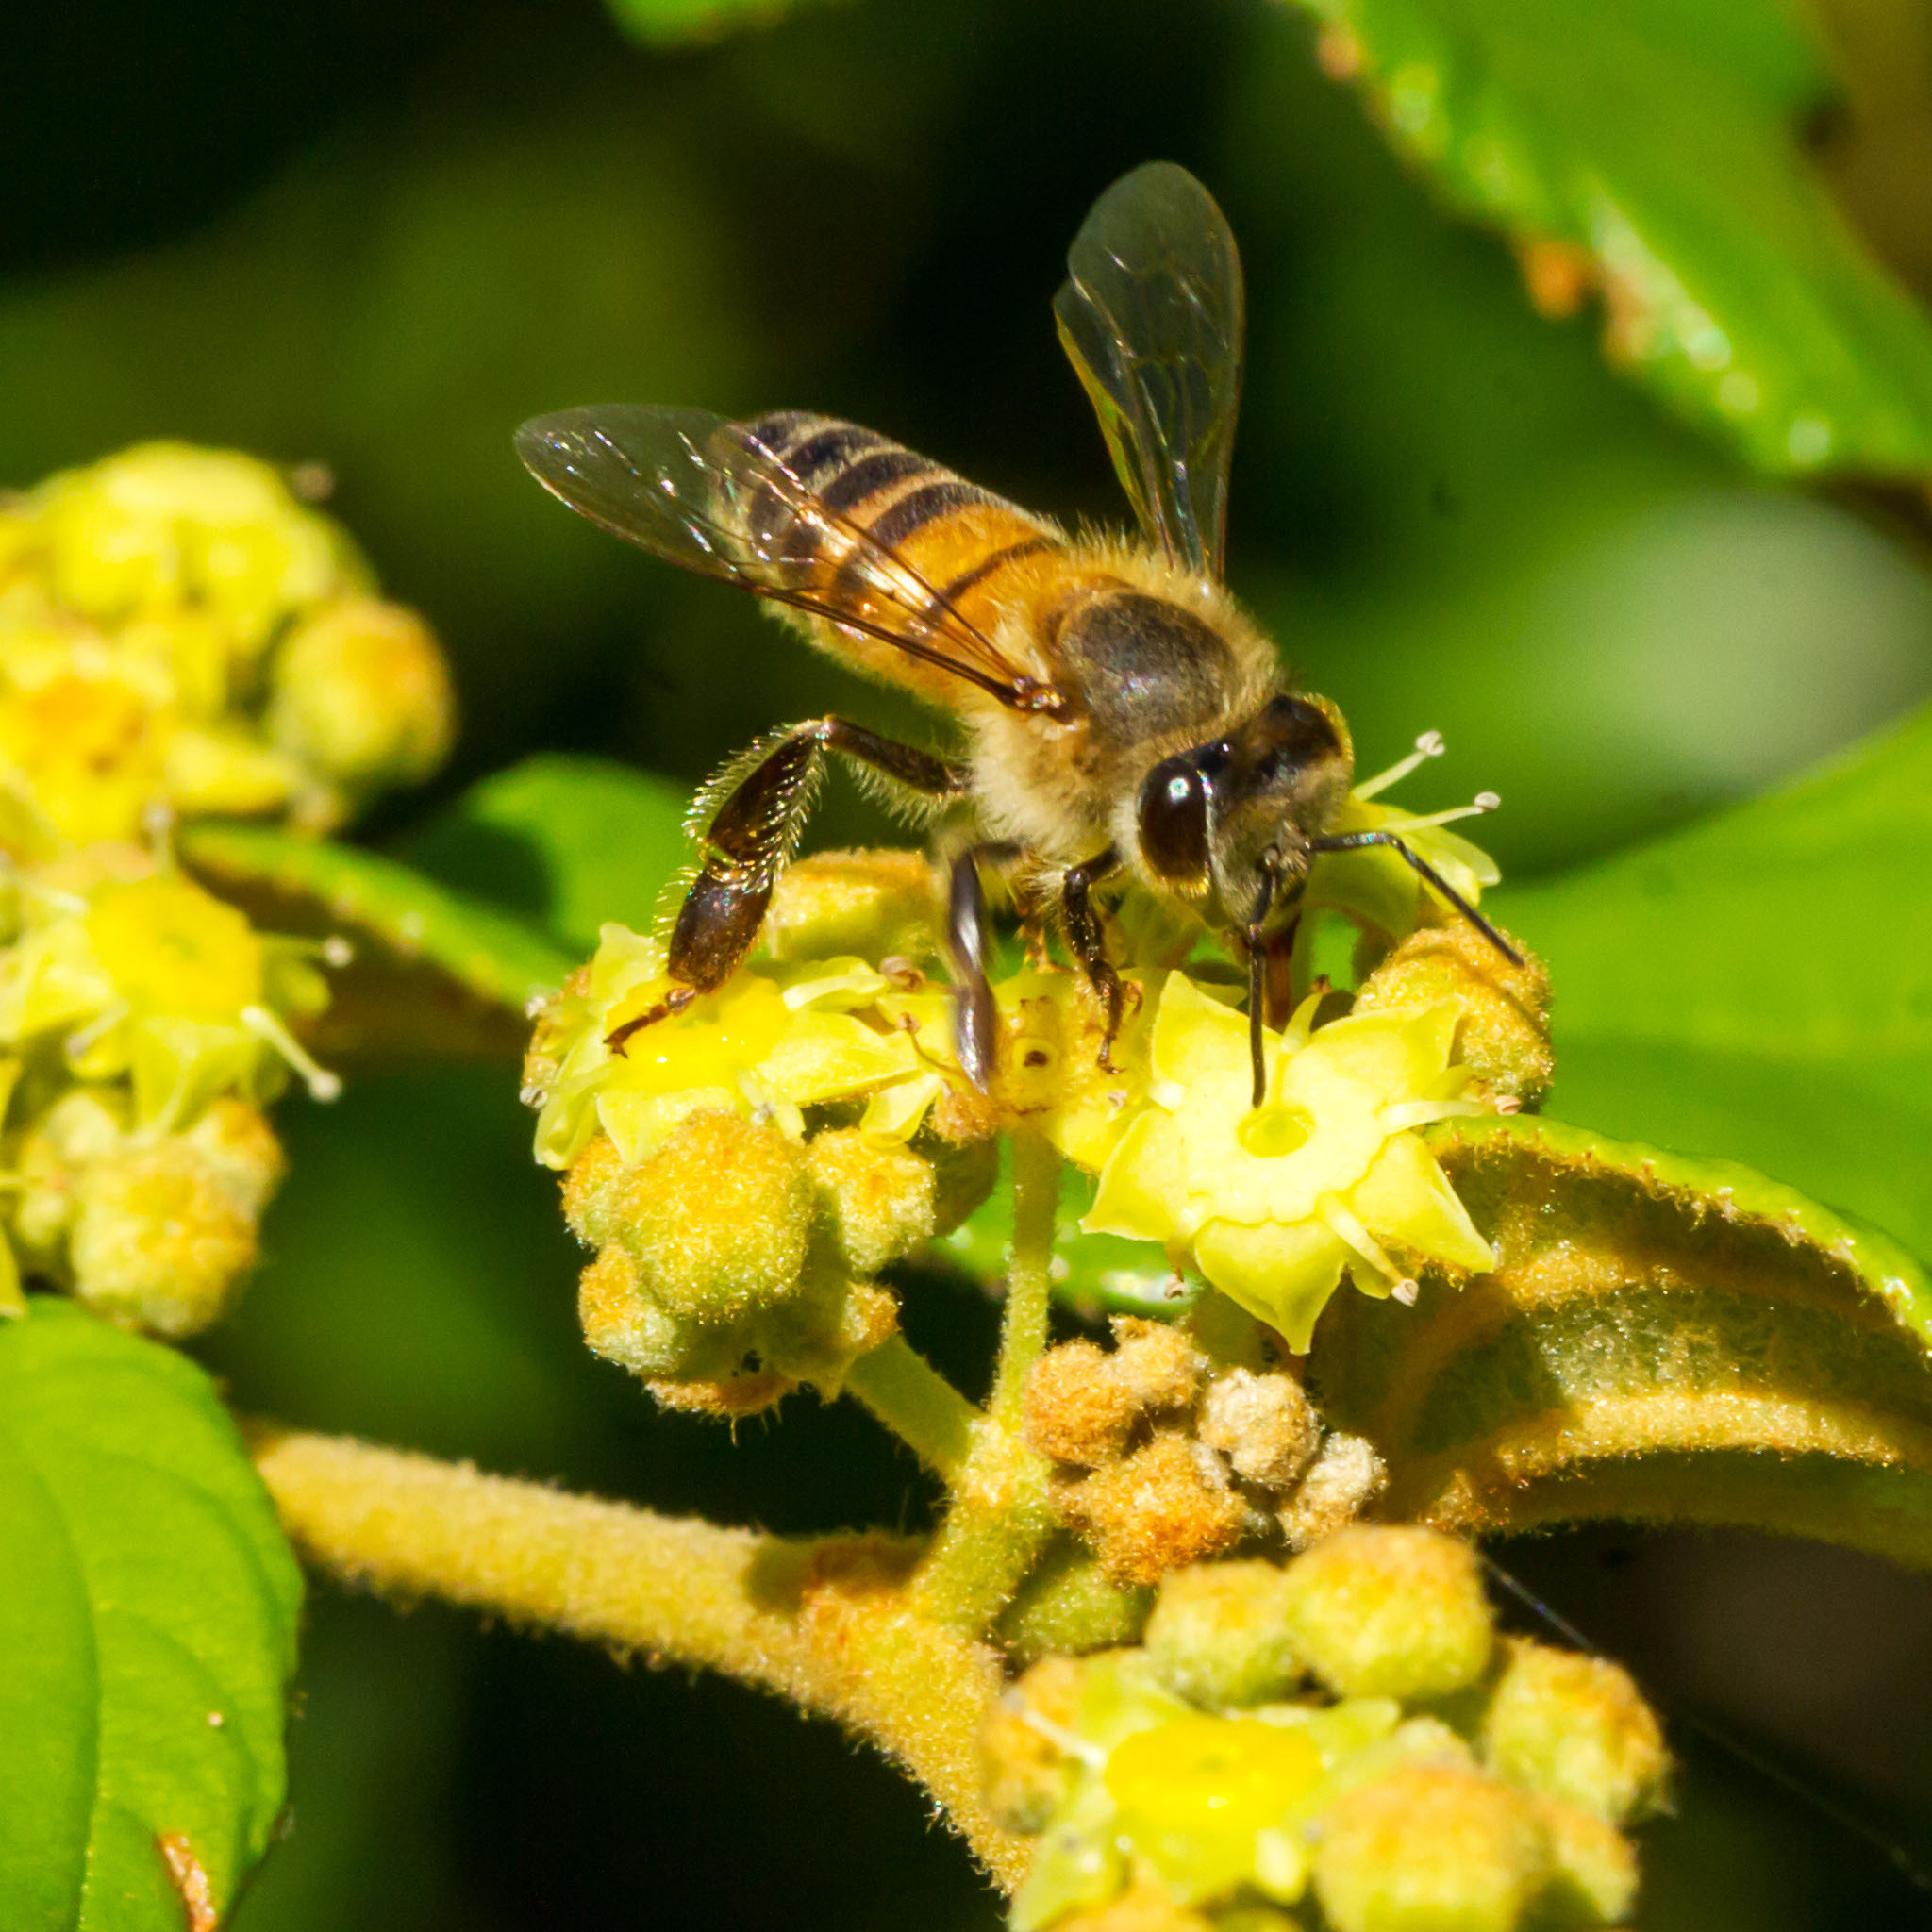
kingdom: Animalia
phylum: Arthropoda
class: Insecta
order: Hymenoptera
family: Apidae
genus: Apis
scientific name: Apis mellifera
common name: Honey bee
